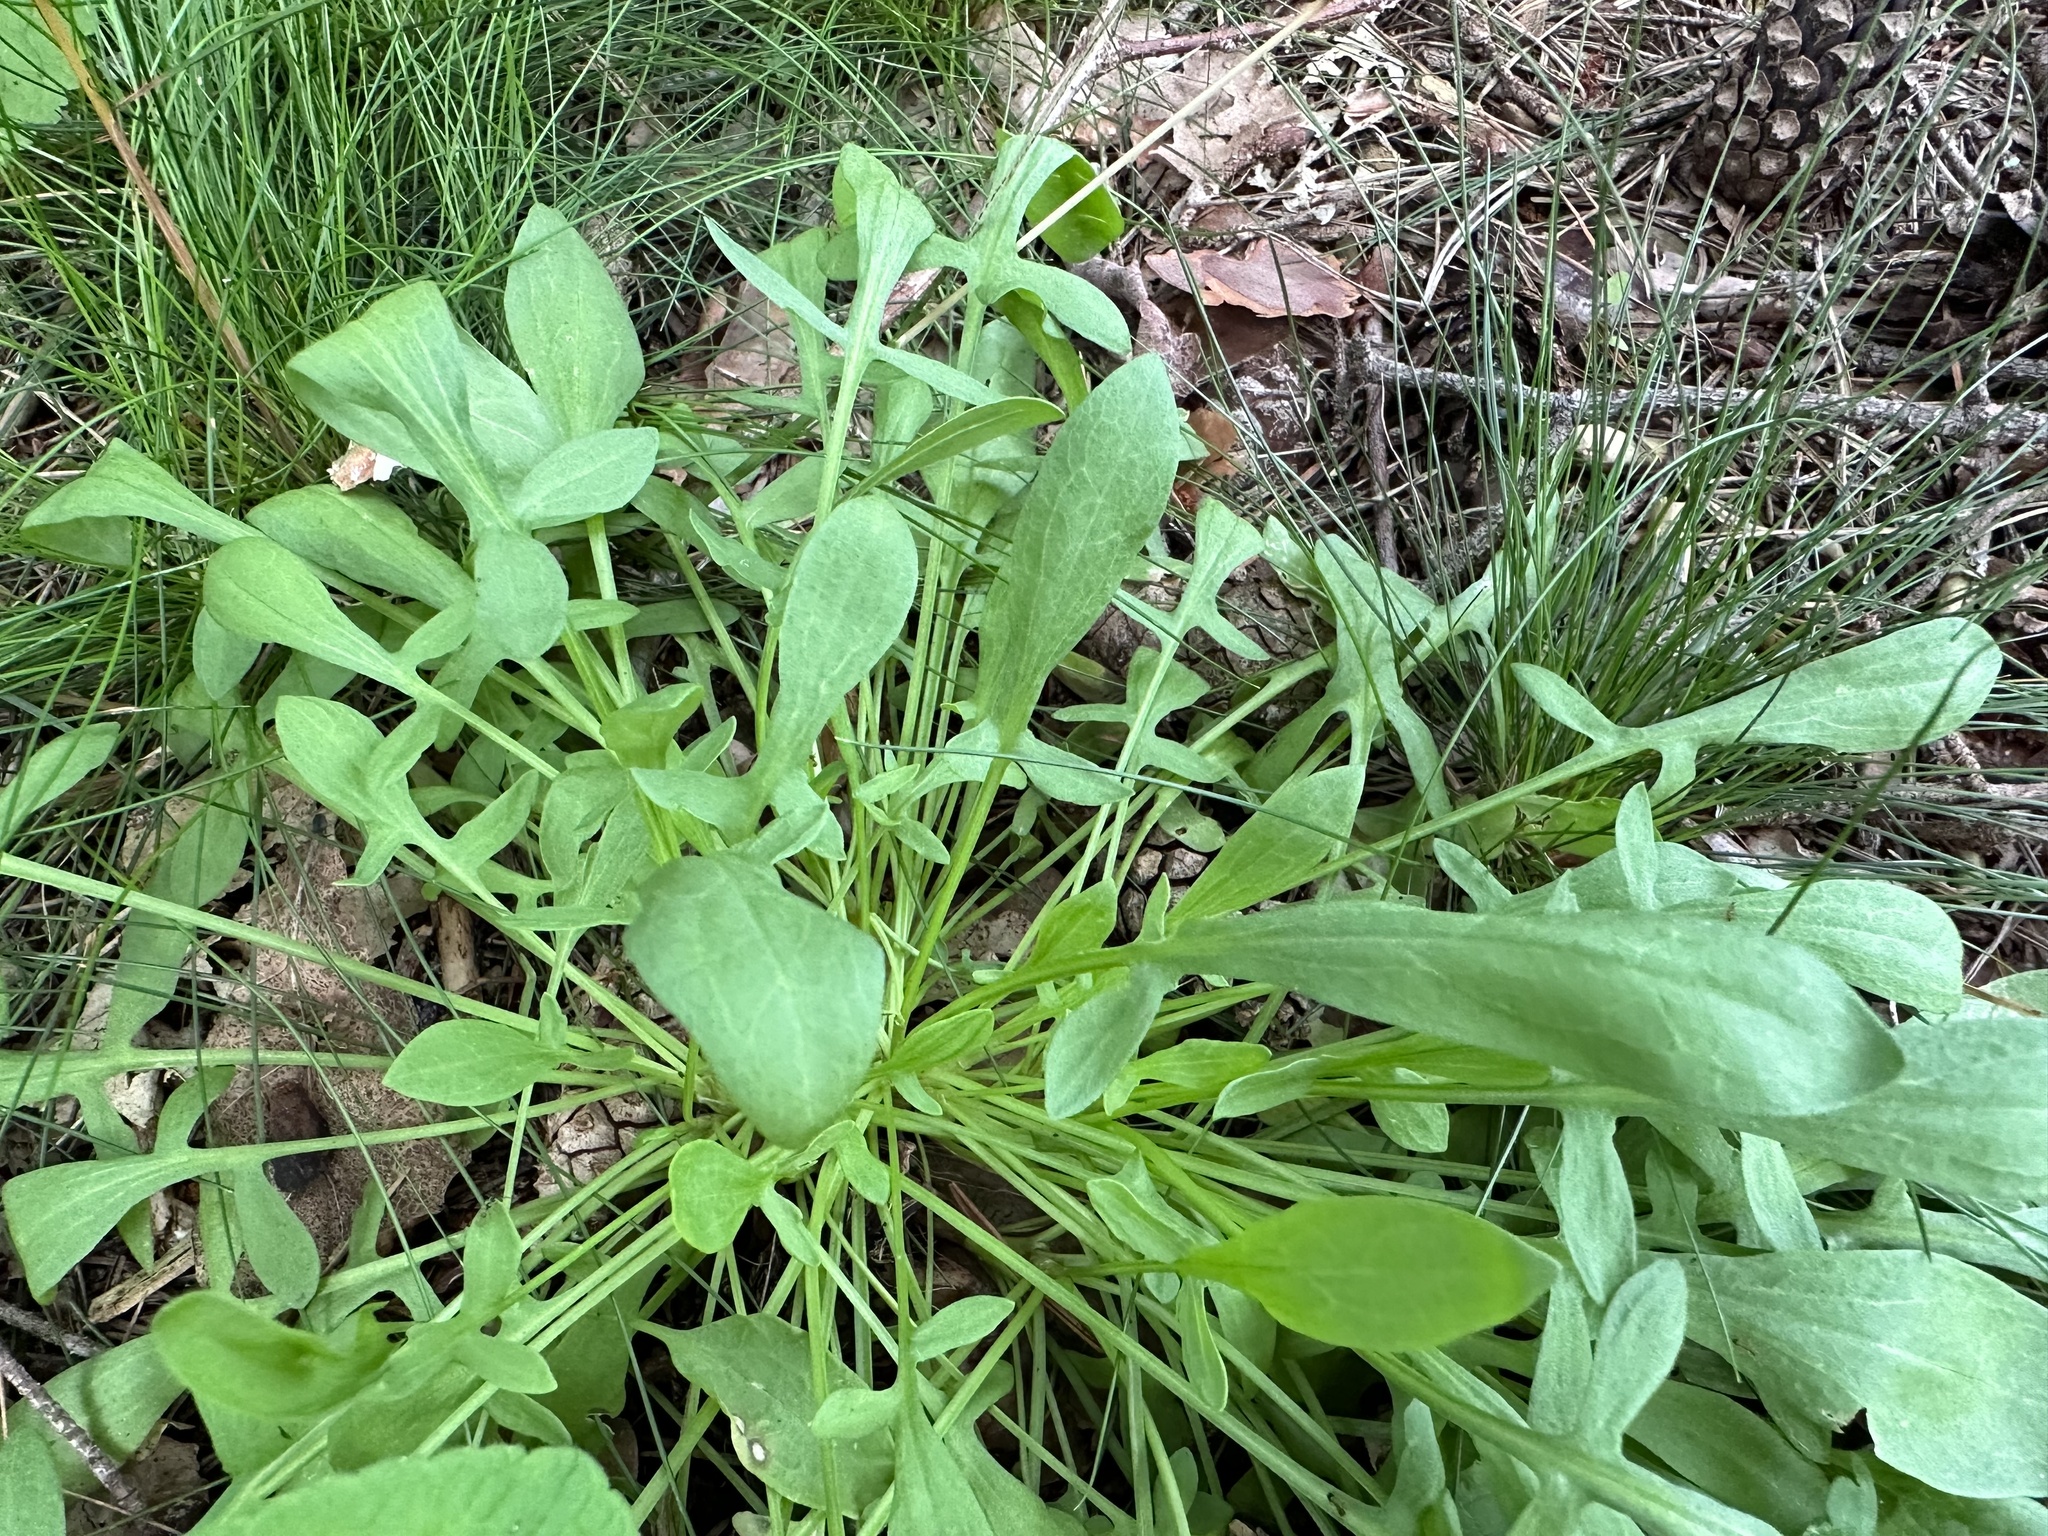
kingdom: Plantae
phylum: Tracheophyta
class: Magnoliopsida
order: Caryophyllales
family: Polygonaceae
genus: Rumex
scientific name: Rumex acetosella
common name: Common sheep sorrel
